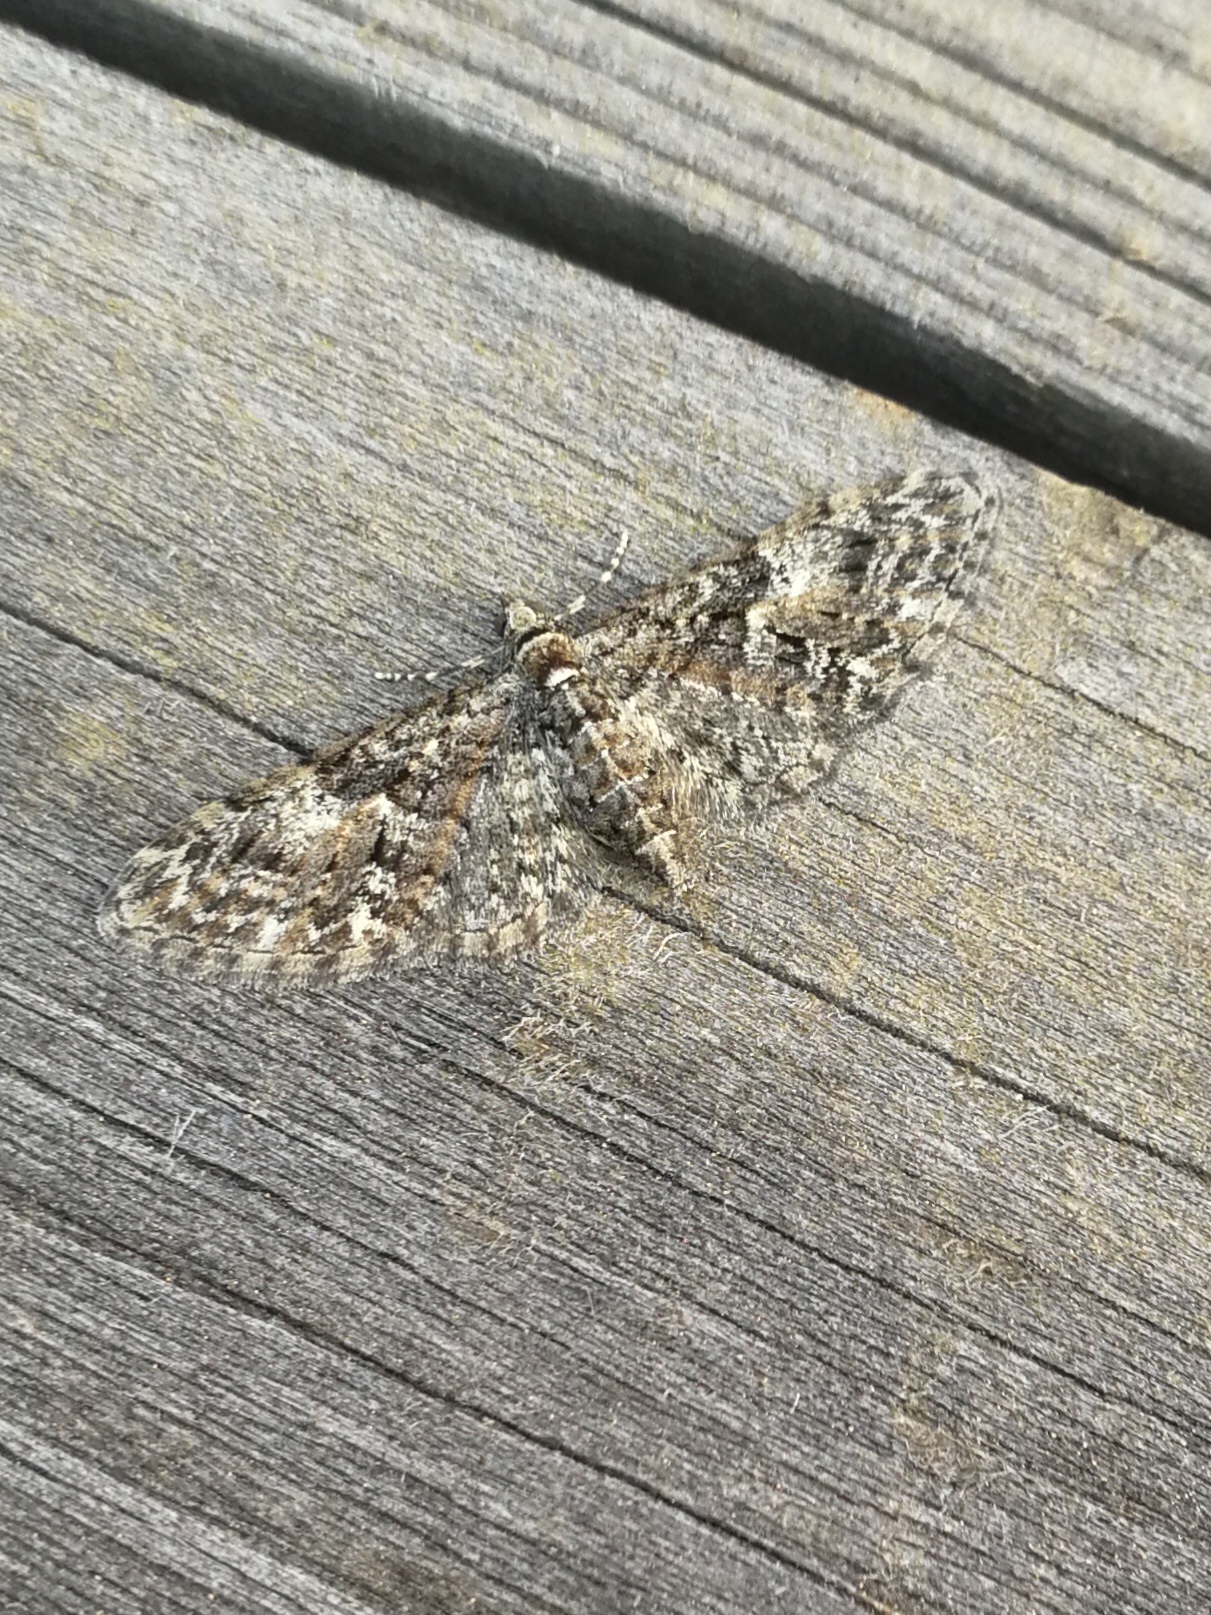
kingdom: Animalia
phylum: Arthropoda
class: Insecta
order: Lepidoptera
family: Geometridae
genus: Eupithecia
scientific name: Eupithecia abbreviata
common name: Brindled pug
